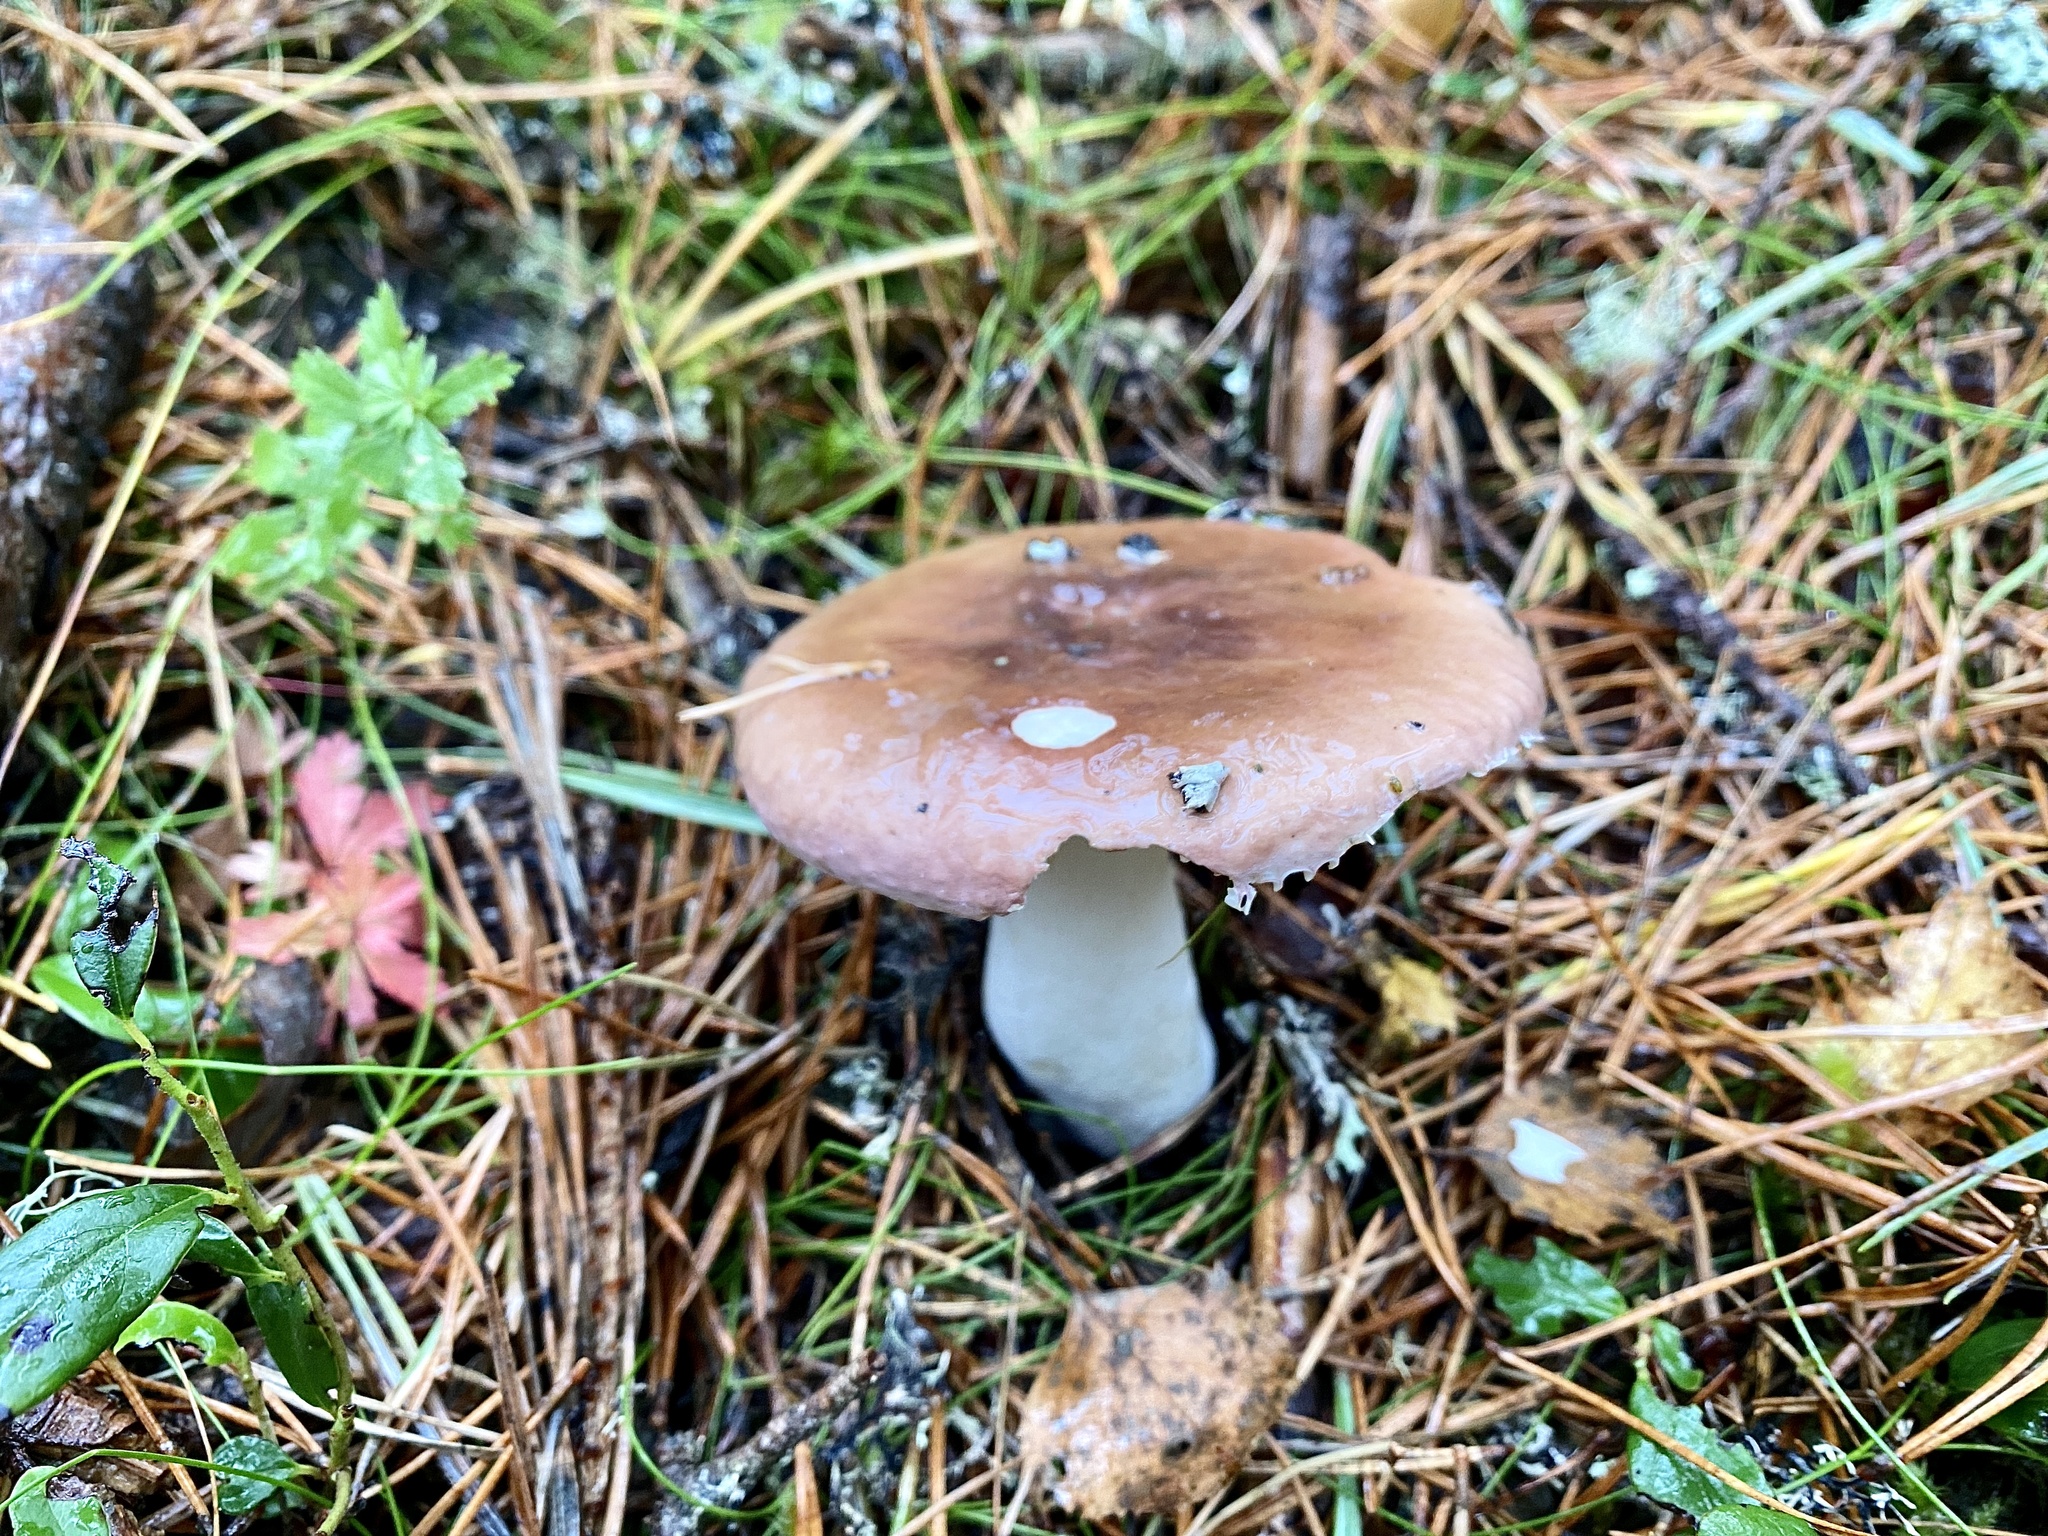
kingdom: Fungi
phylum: Basidiomycota
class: Agaricomycetes
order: Russulales
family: Russulaceae
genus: Russula
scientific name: Russula betularum
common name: Birch brittlegill
